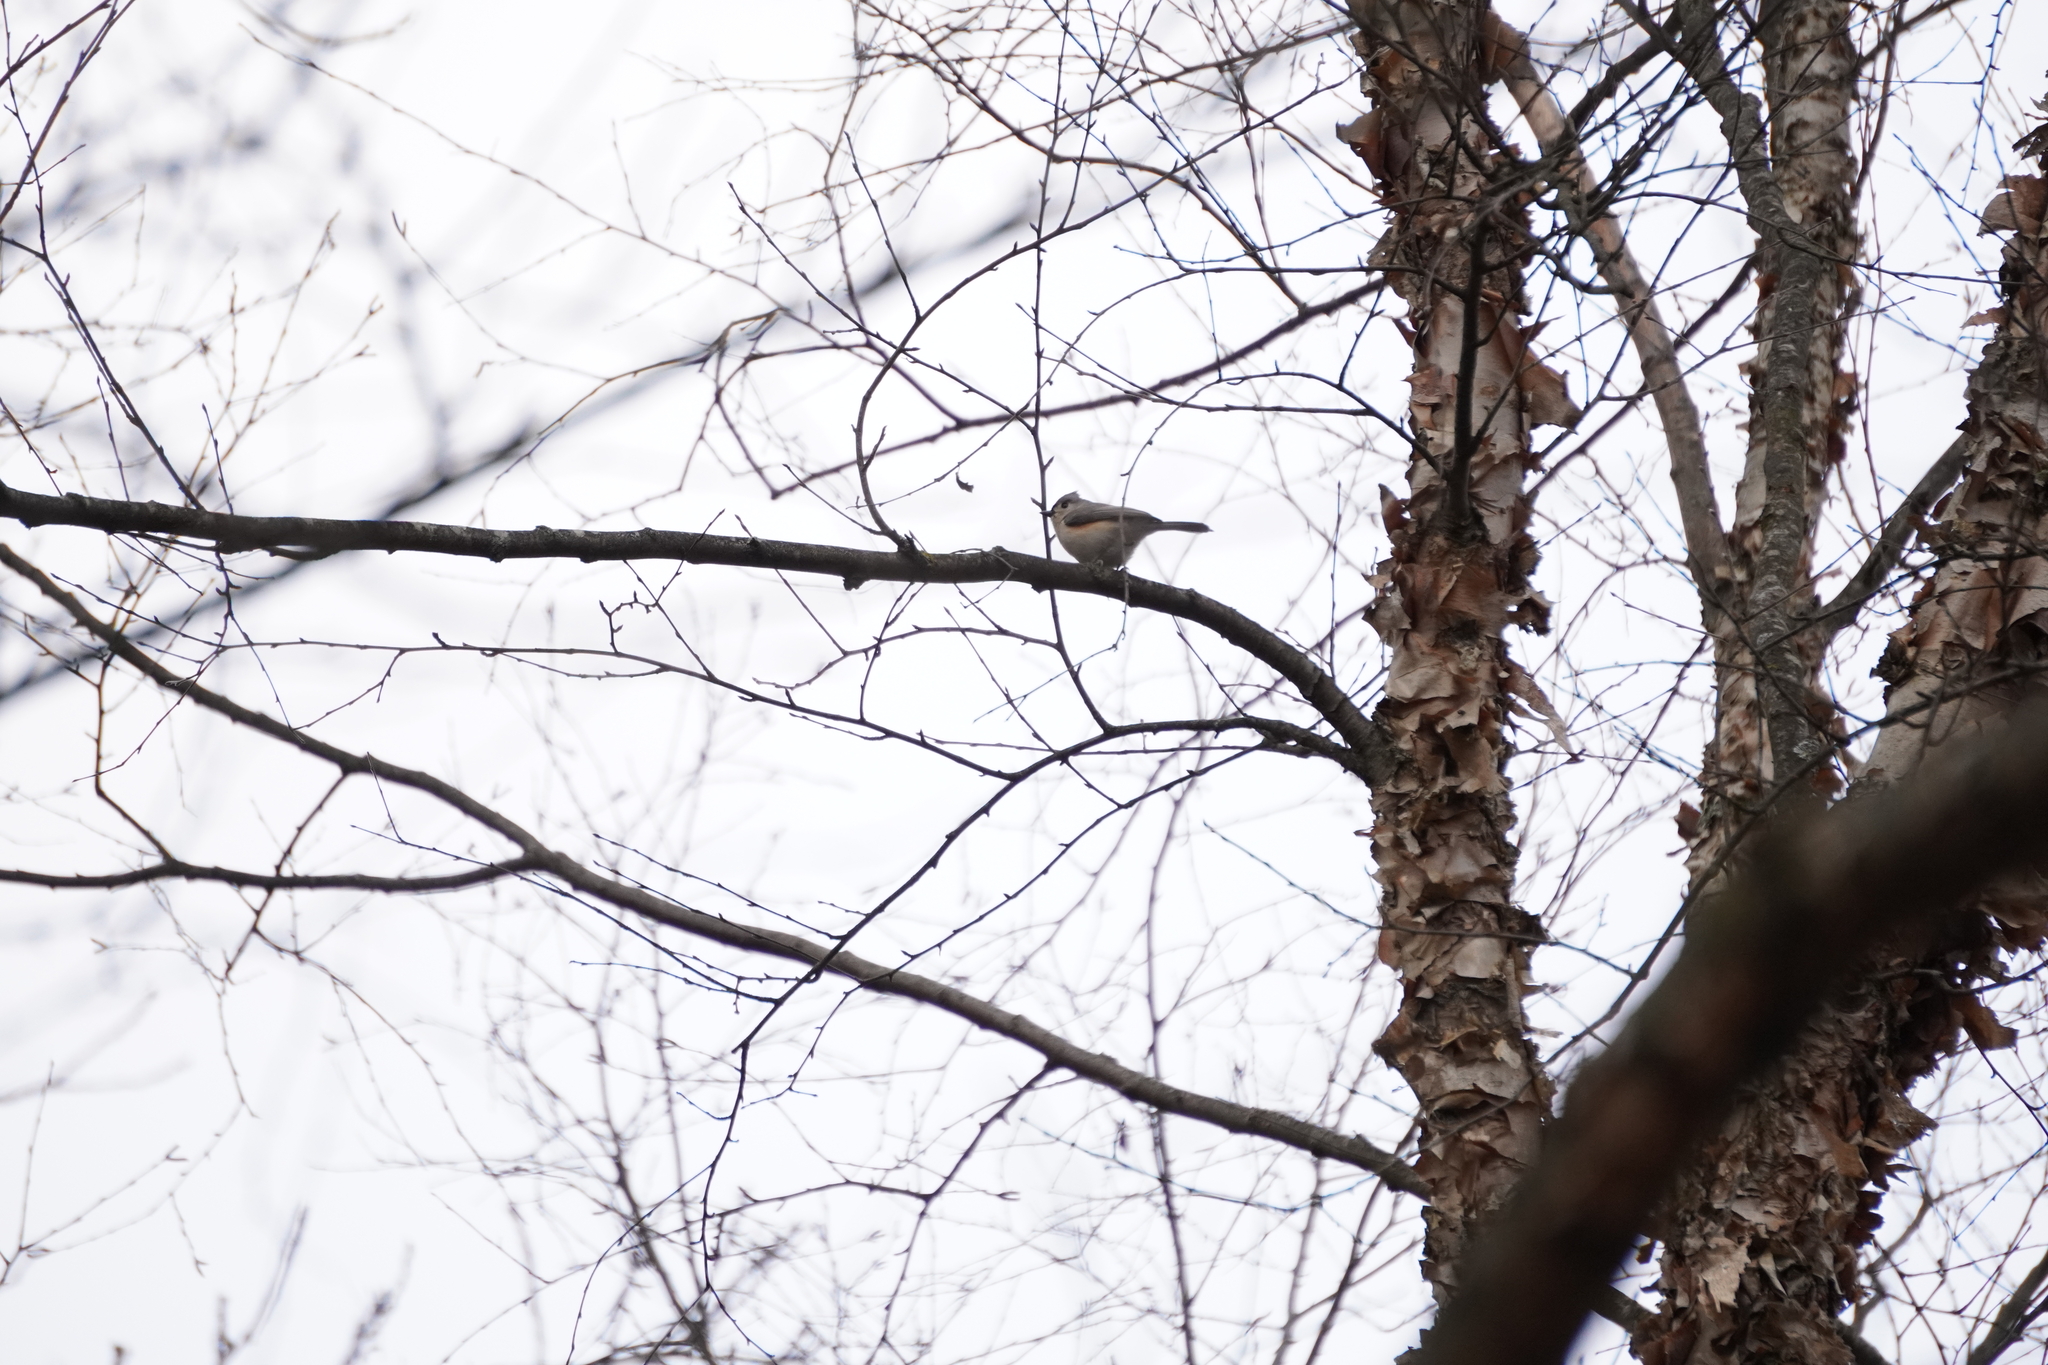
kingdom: Animalia
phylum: Chordata
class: Aves
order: Passeriformes
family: Paridae
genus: Baeolophus
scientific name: Baeolophus bicolor
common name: Tufted titmouse
